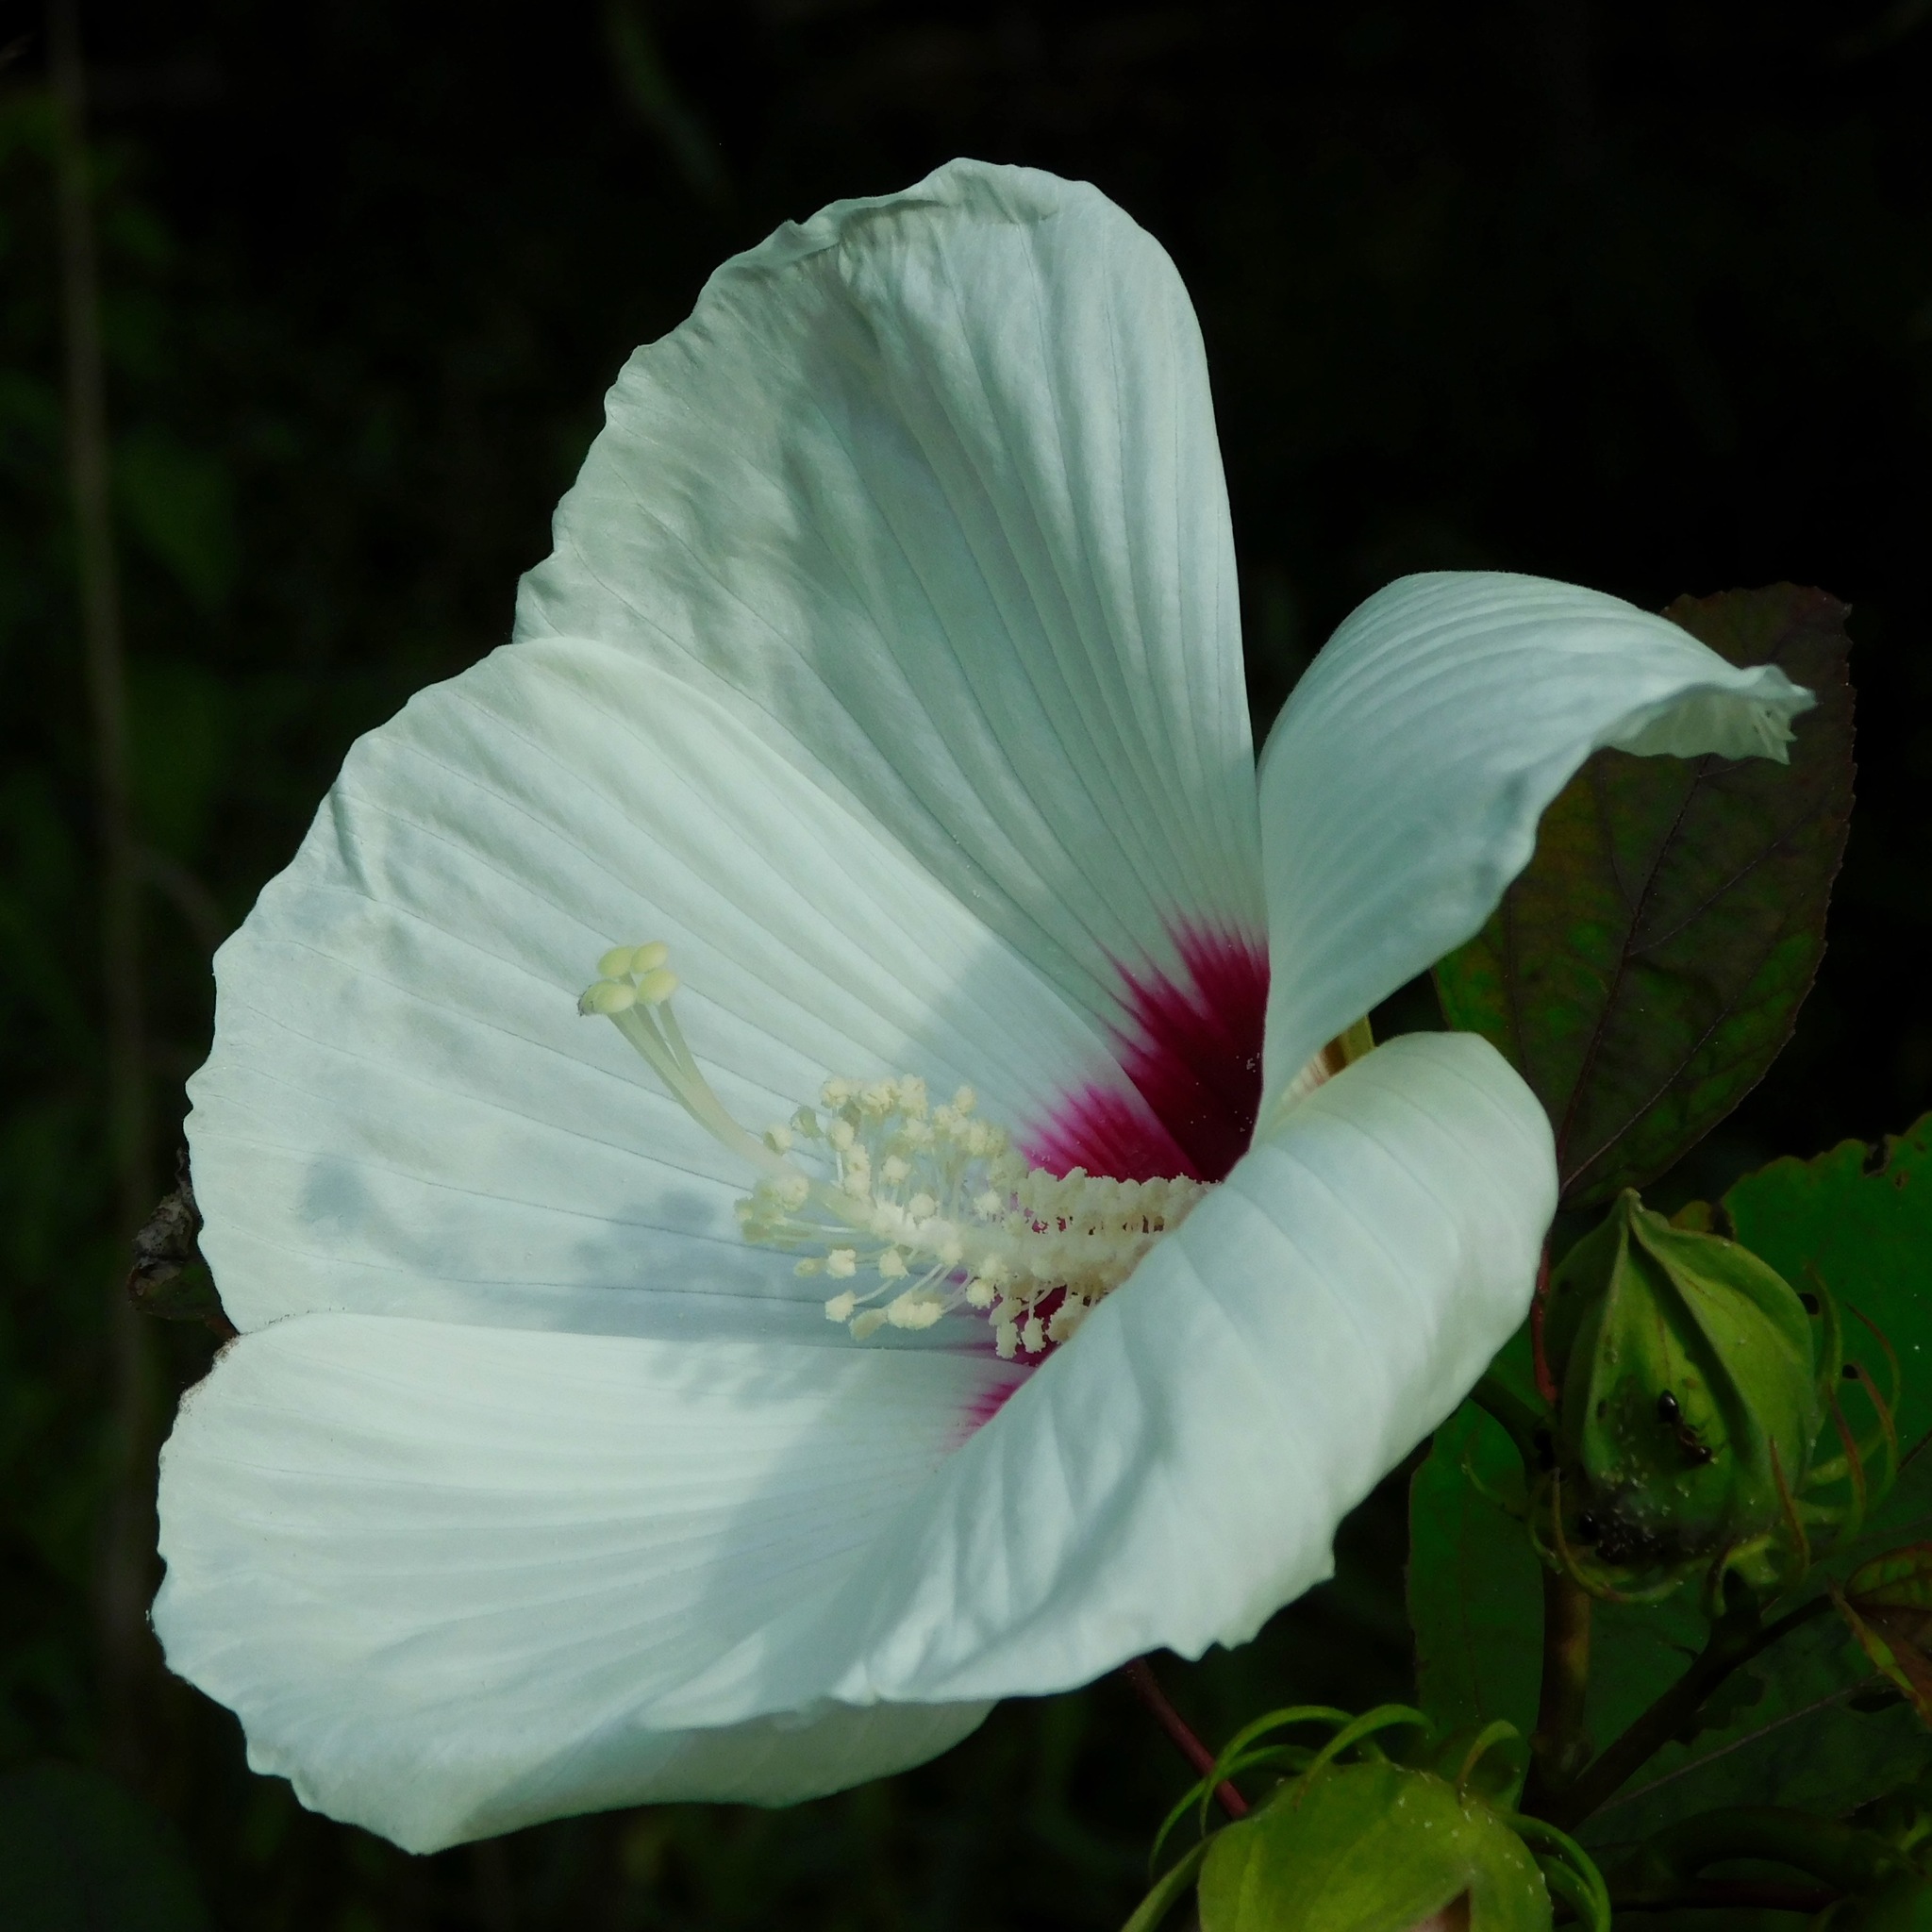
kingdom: Plantae
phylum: Tracheophyta
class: Magnoliopsida
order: Malvales
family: Malvaceae
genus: Hibiscus
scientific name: Hibiscus moscheutos
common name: Common rose-mallow
